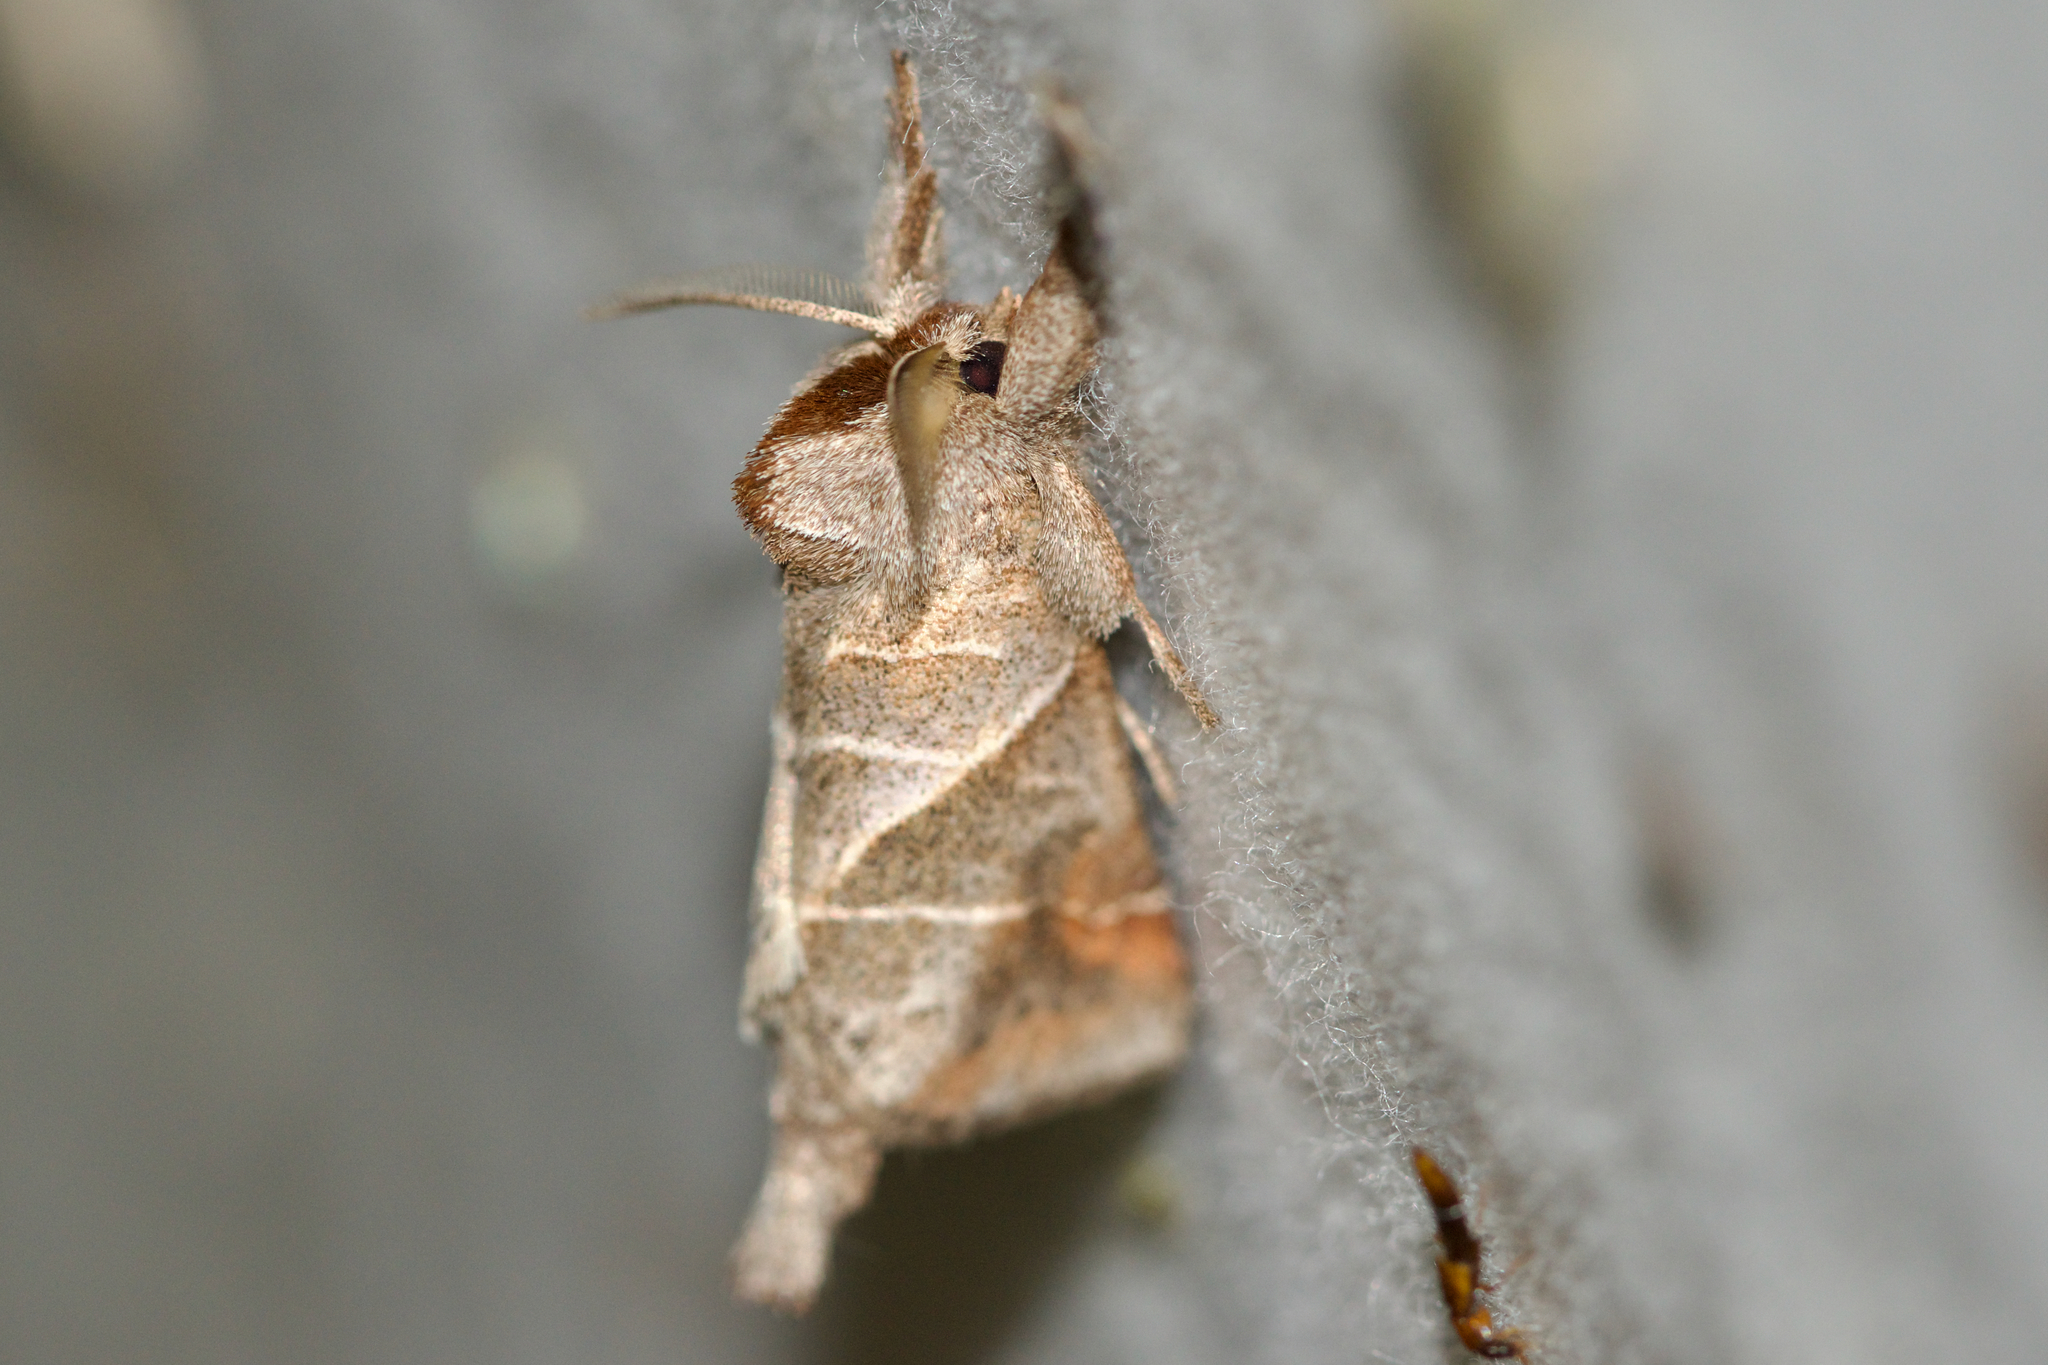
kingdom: Animalia
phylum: Arthropoda
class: Insecta
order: Lepidoptera
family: Notodontidae
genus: Clostera
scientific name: Clostera inclusa
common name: Angle-lined prominent
